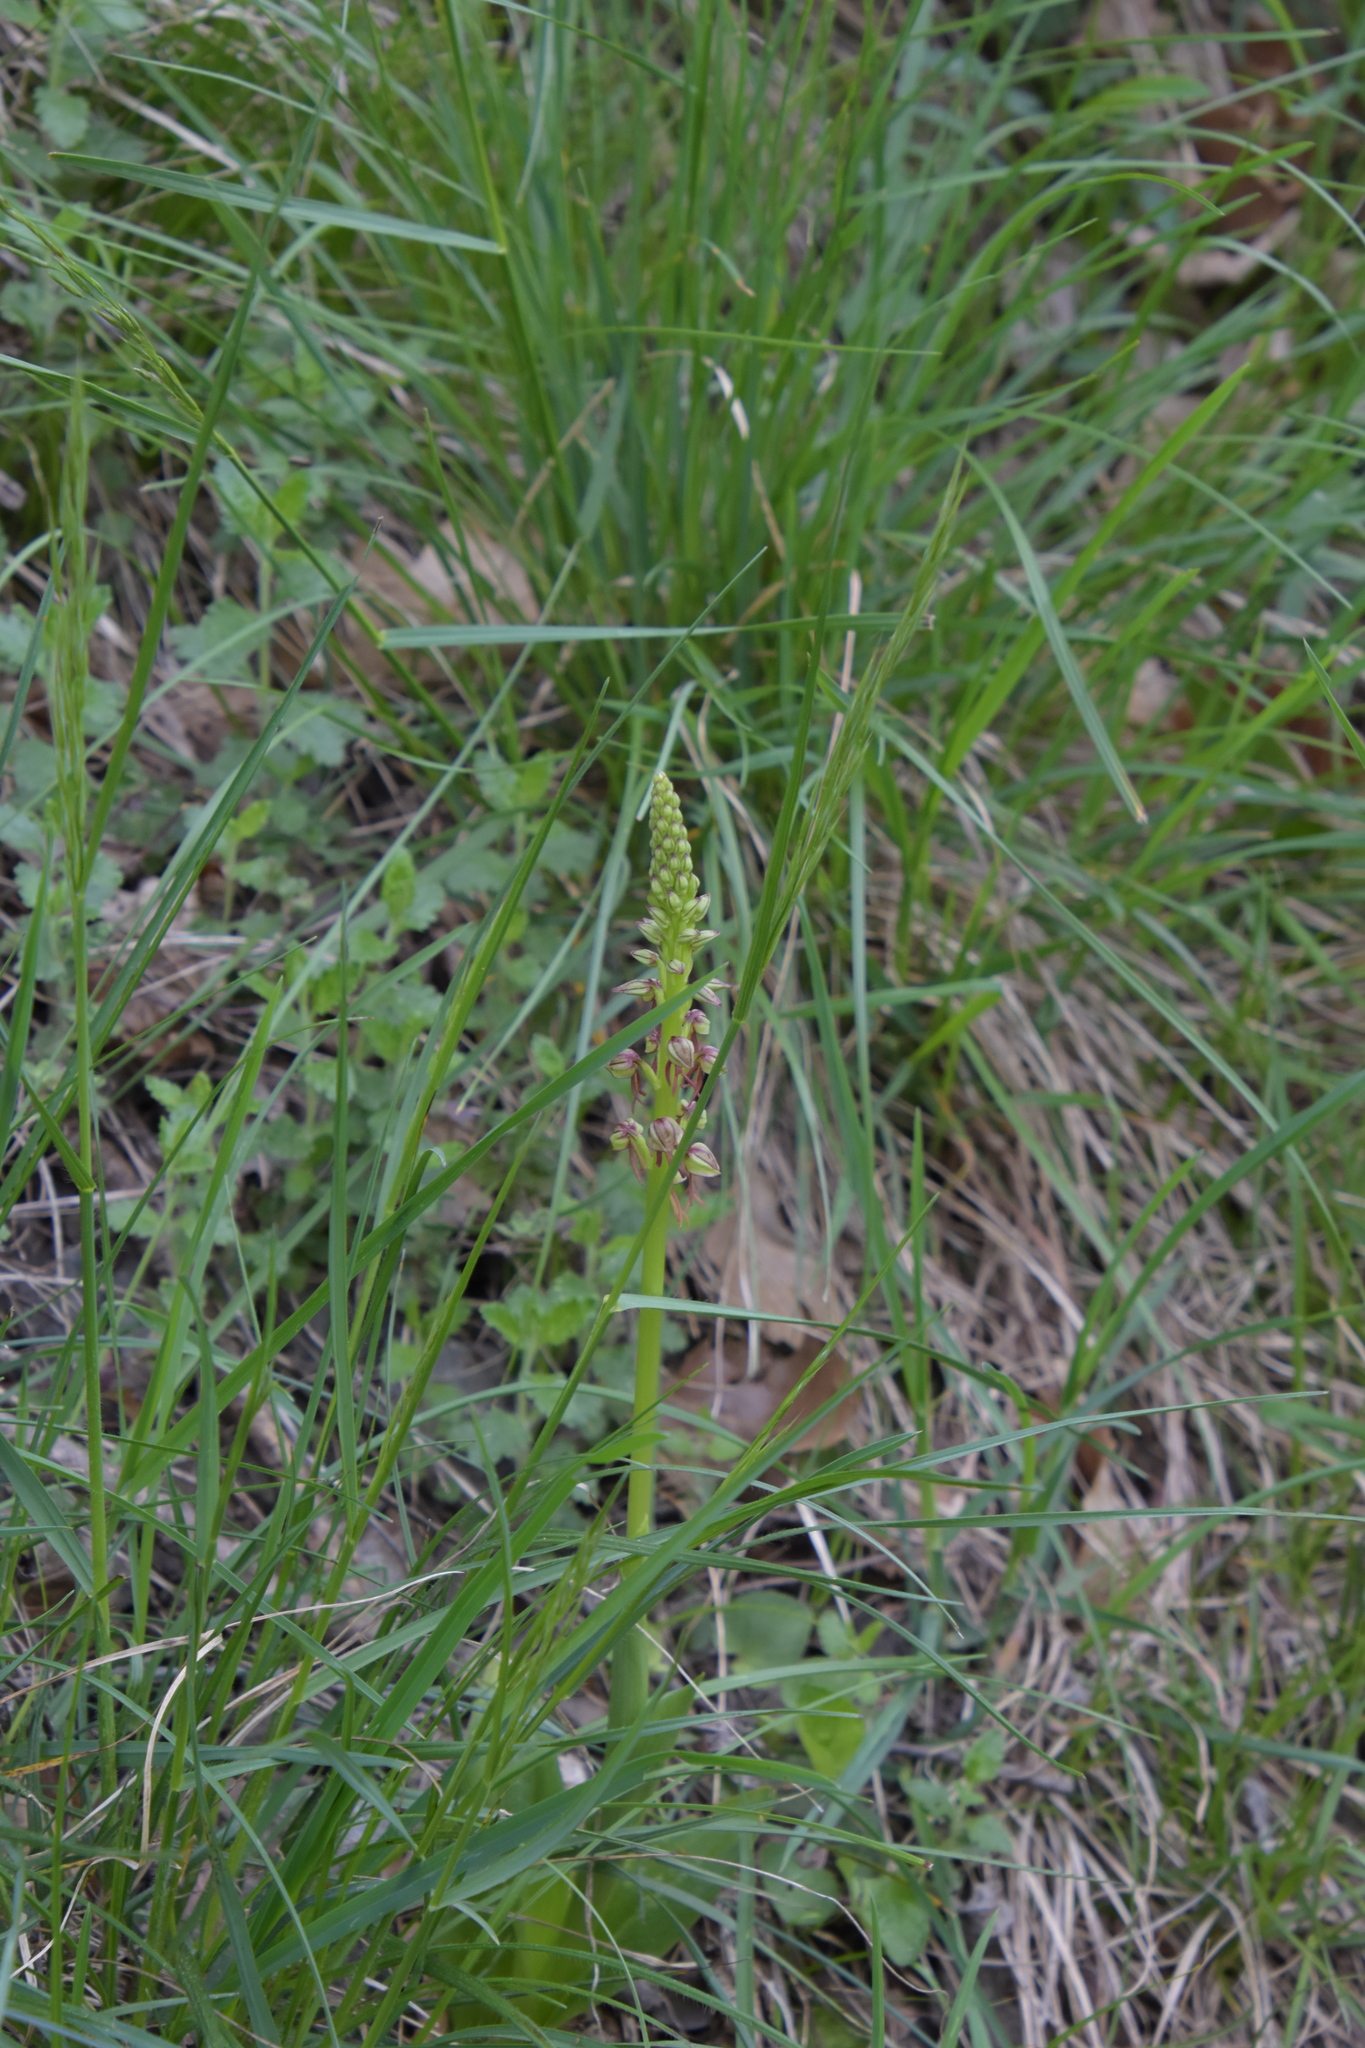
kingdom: Plantae
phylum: Tracheophyta
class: Liliopsida
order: Asparagales
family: Orchidaceae
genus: Orchis
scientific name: Orchis anthropophora
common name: Man orchid
